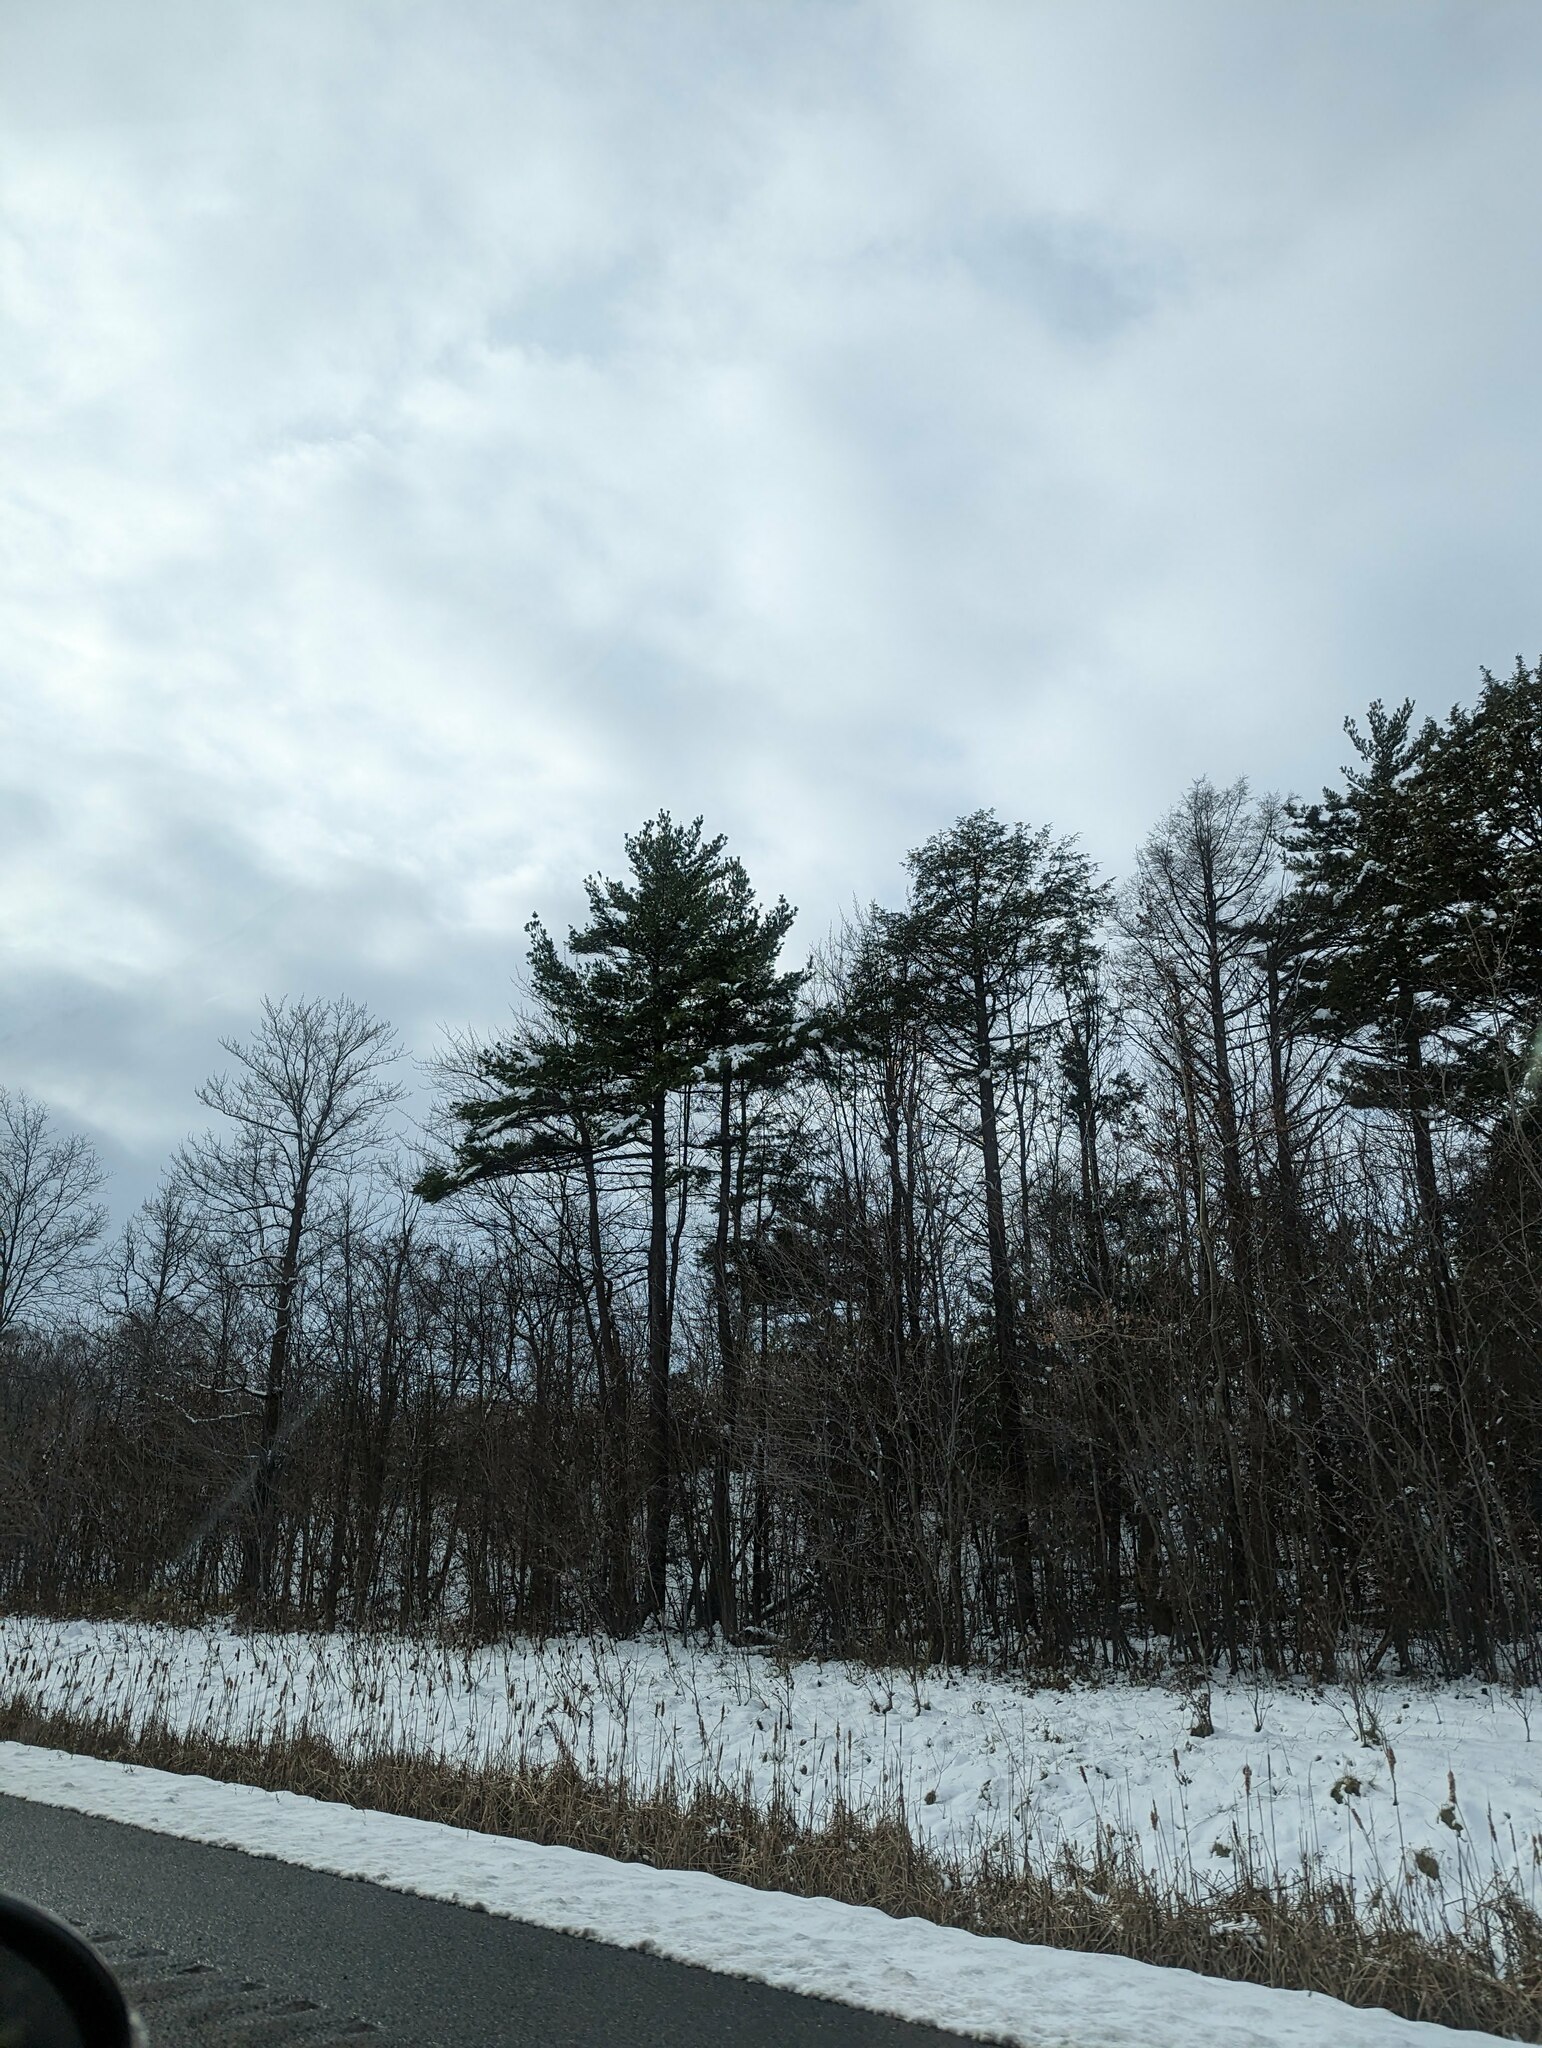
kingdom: Plantae
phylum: Tracheophyta
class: Pinopsida
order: Pinales
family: Pinaceae
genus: Pinus
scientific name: Pinus strobus
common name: Weymouth pine
